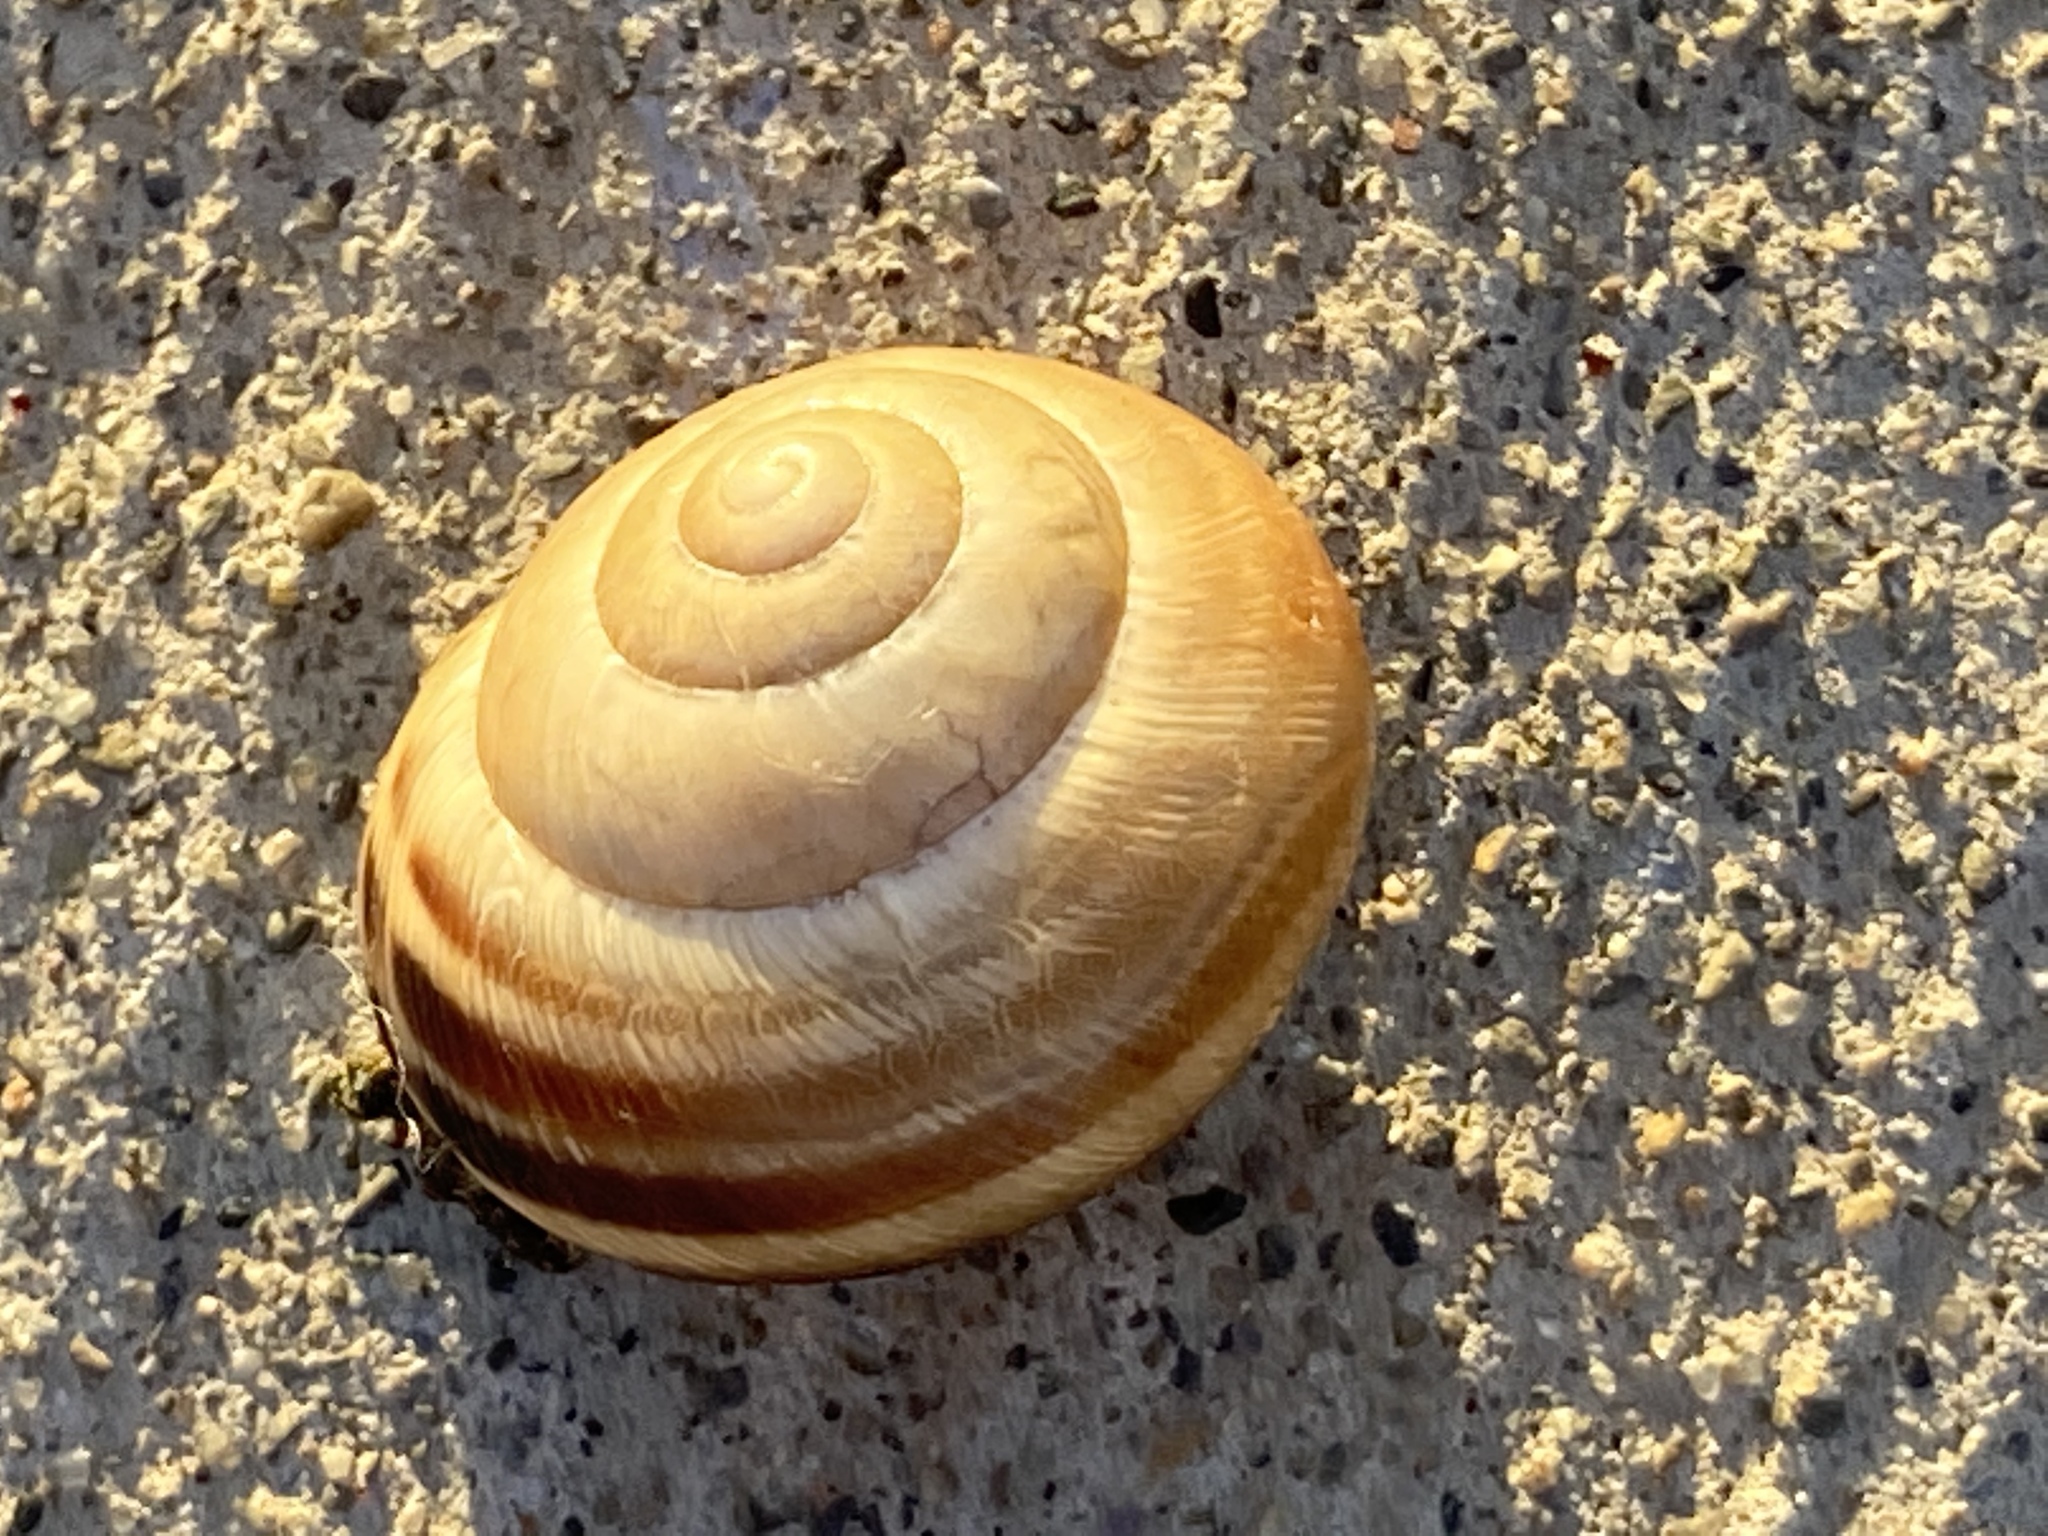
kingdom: Animalia
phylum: Mollusca
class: Gastropoda
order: Stylommatophora
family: Helicidae
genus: Caucasotachea
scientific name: Caucasotachea vindobonensis
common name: European helicid land snail
